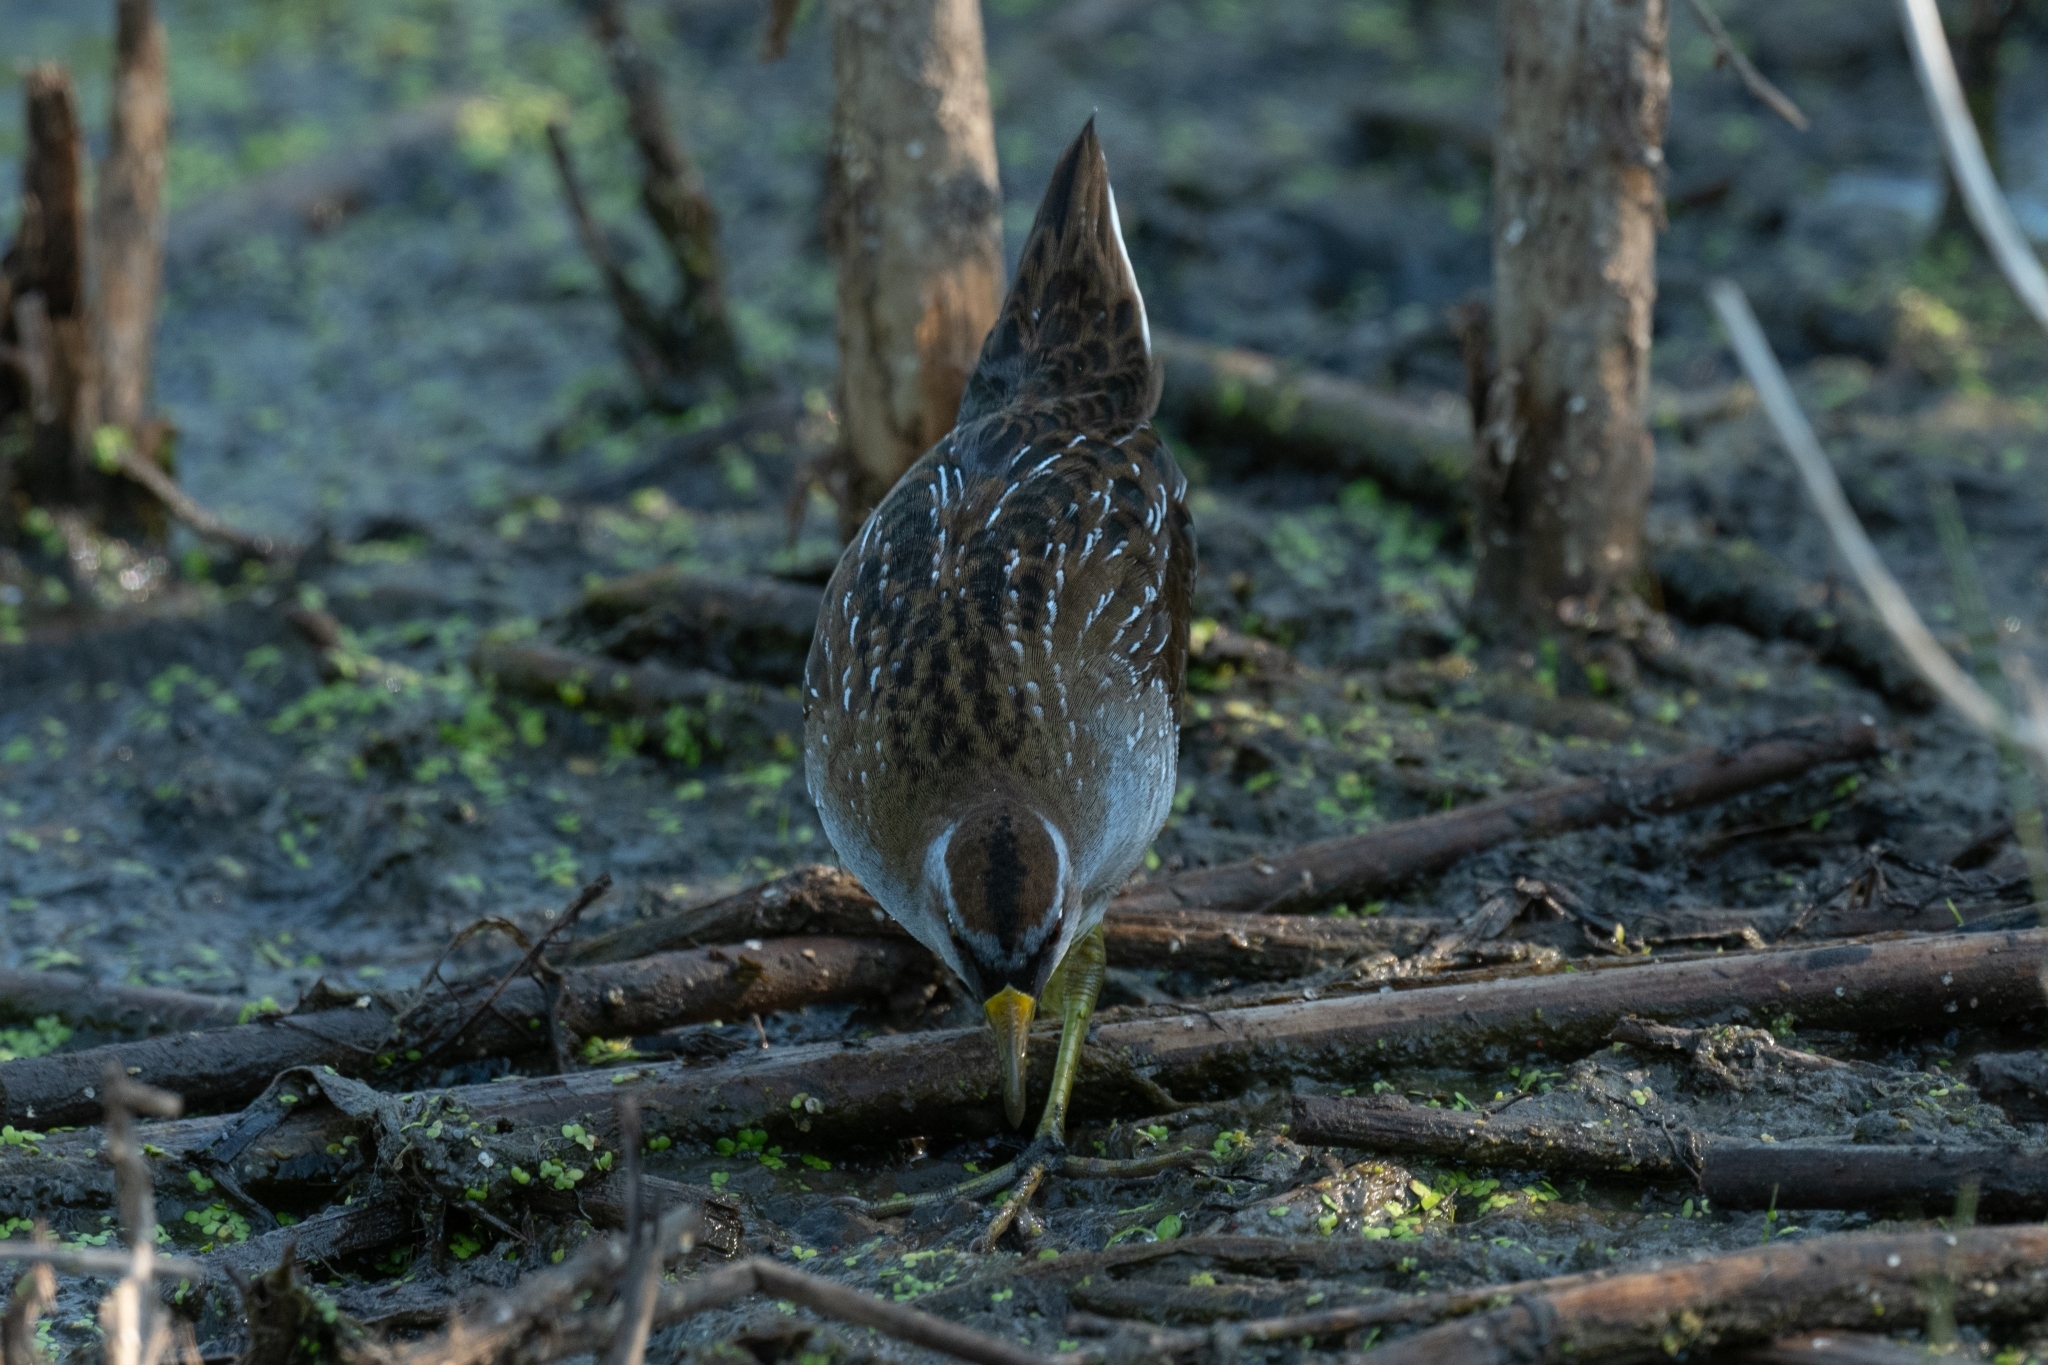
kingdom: Animalia
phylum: Chordata
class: Aves
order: Gruiformes
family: Rallidae
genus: Porzana
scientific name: Porzana carolina
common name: Sora
